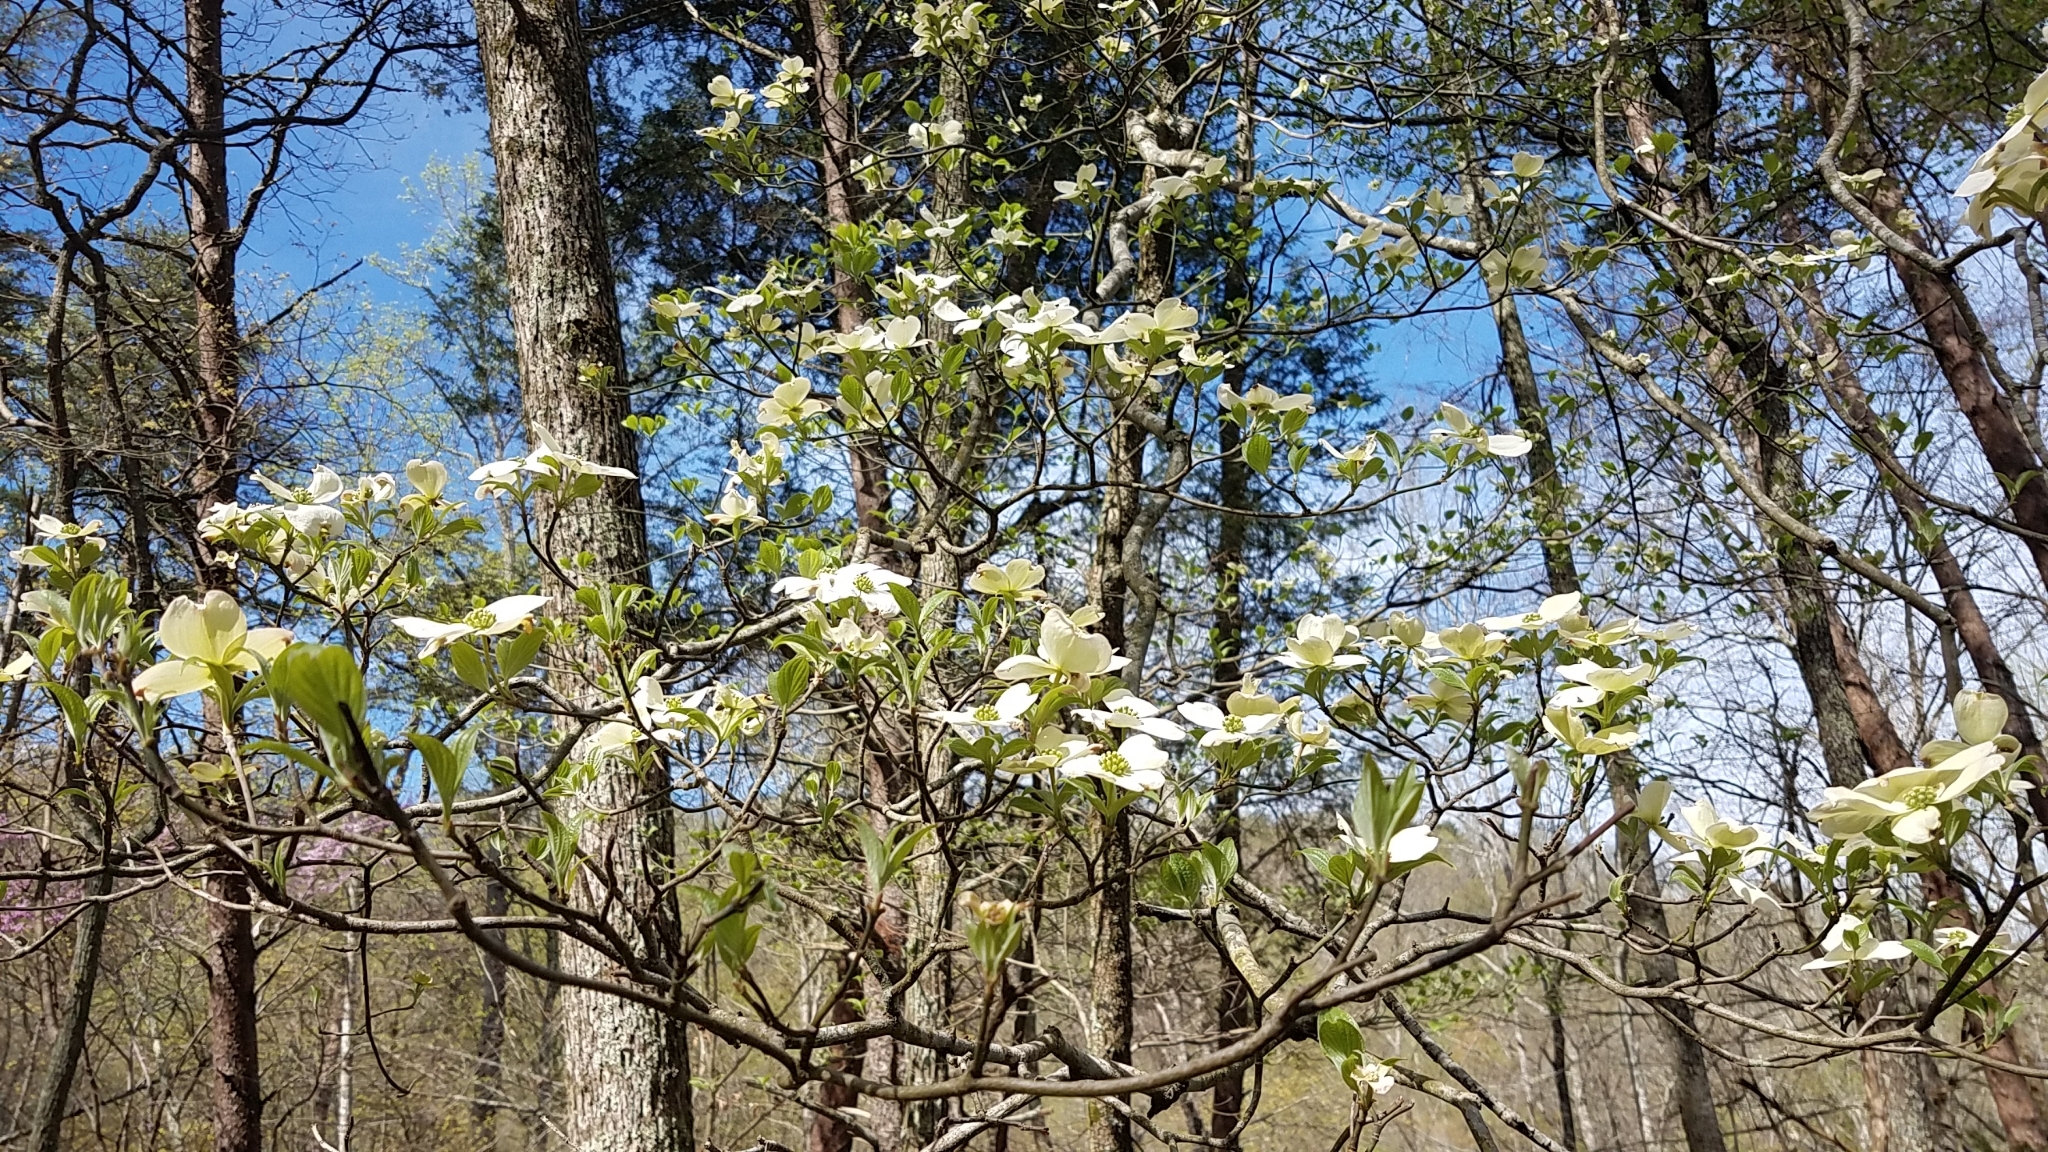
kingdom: Plantae
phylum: Tracheophyta
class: Magnoliopsida
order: Cornales
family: Cornaceae
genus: Cornus
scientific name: Cornus florida
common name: Flowering dogwood
